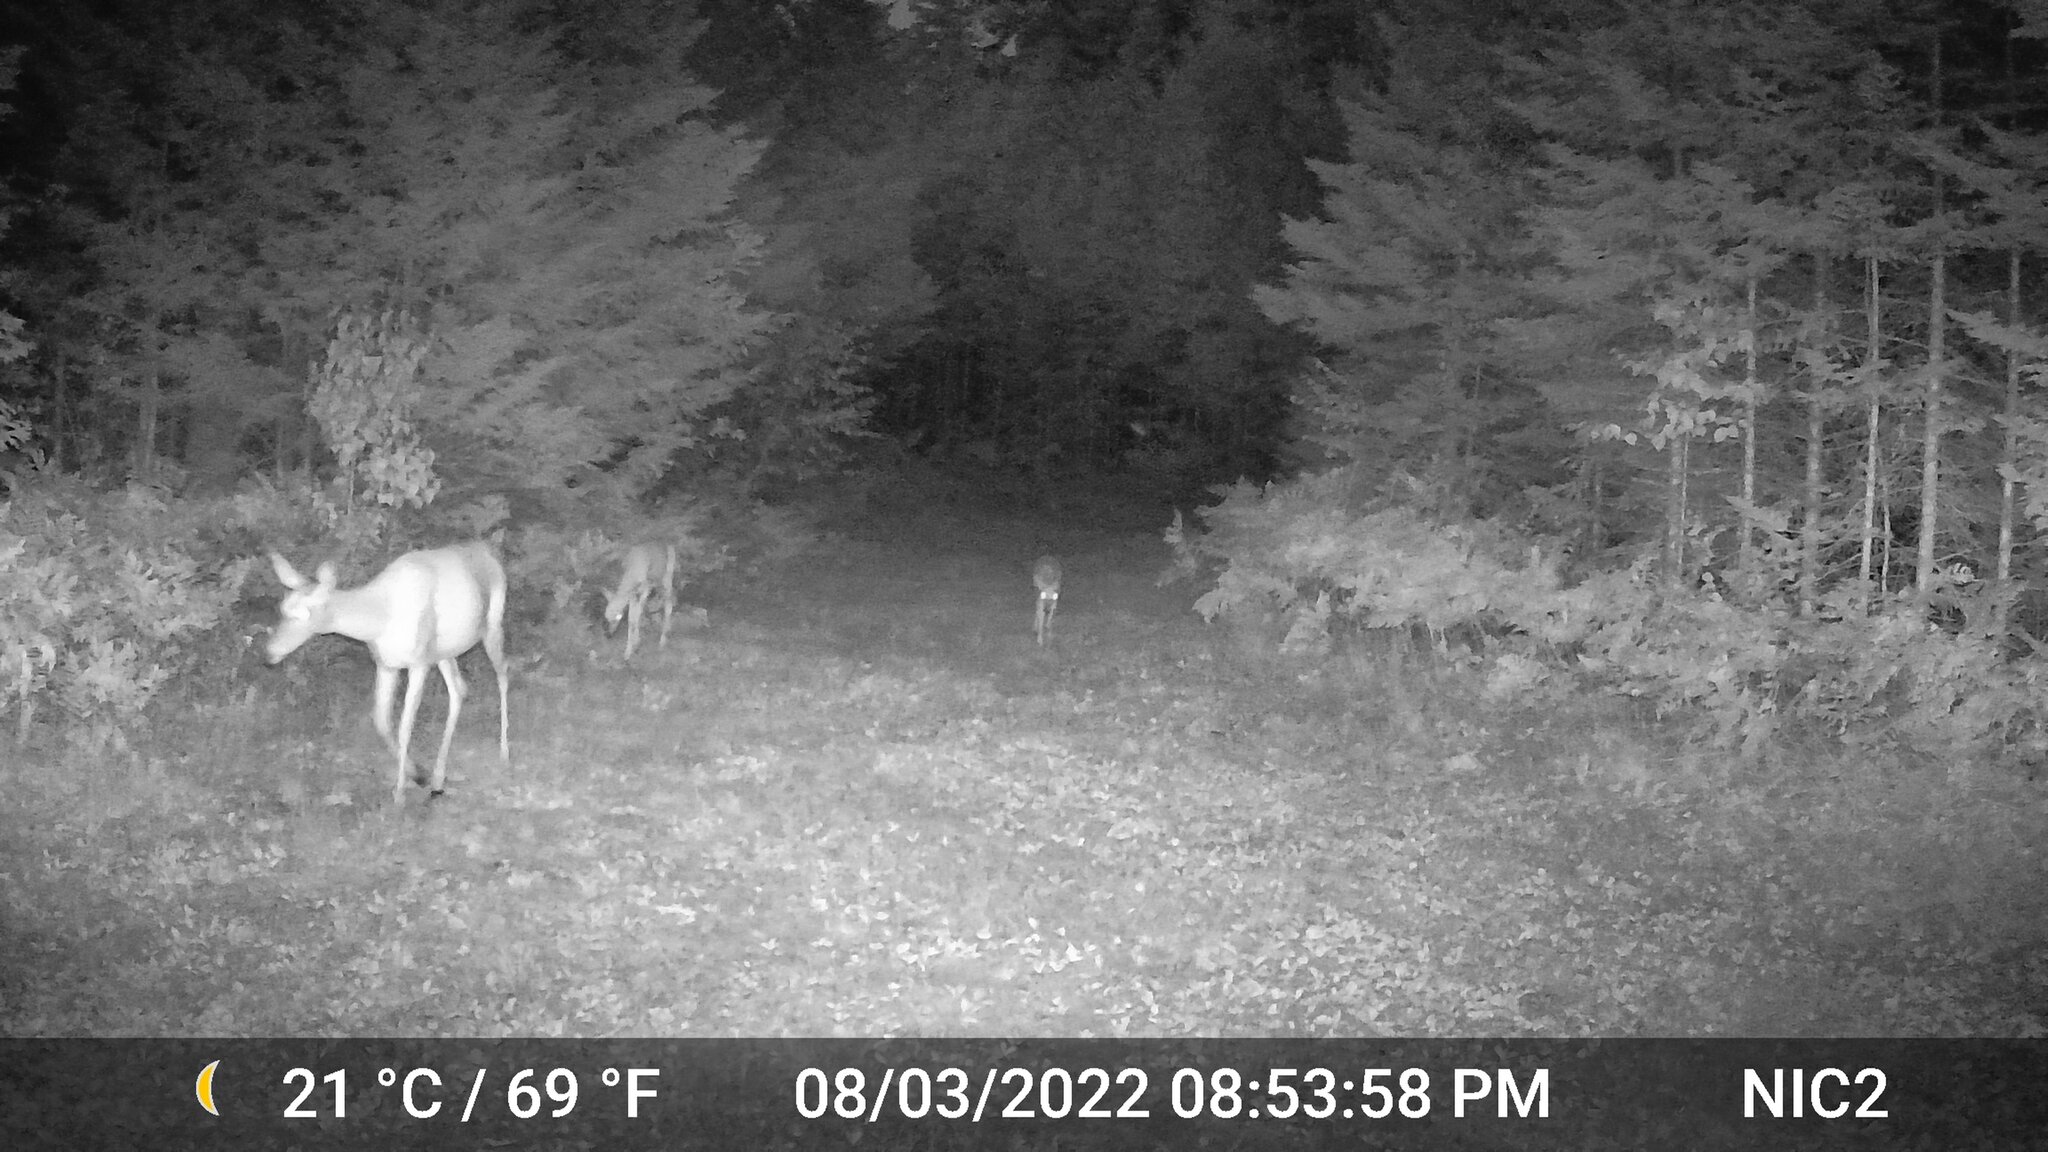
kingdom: Animalia
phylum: Chordata
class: Mammalia
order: Artiodactyla
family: Cervidae
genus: Odocoileus
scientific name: Odocoileus virginianus
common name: White-tailed deer
